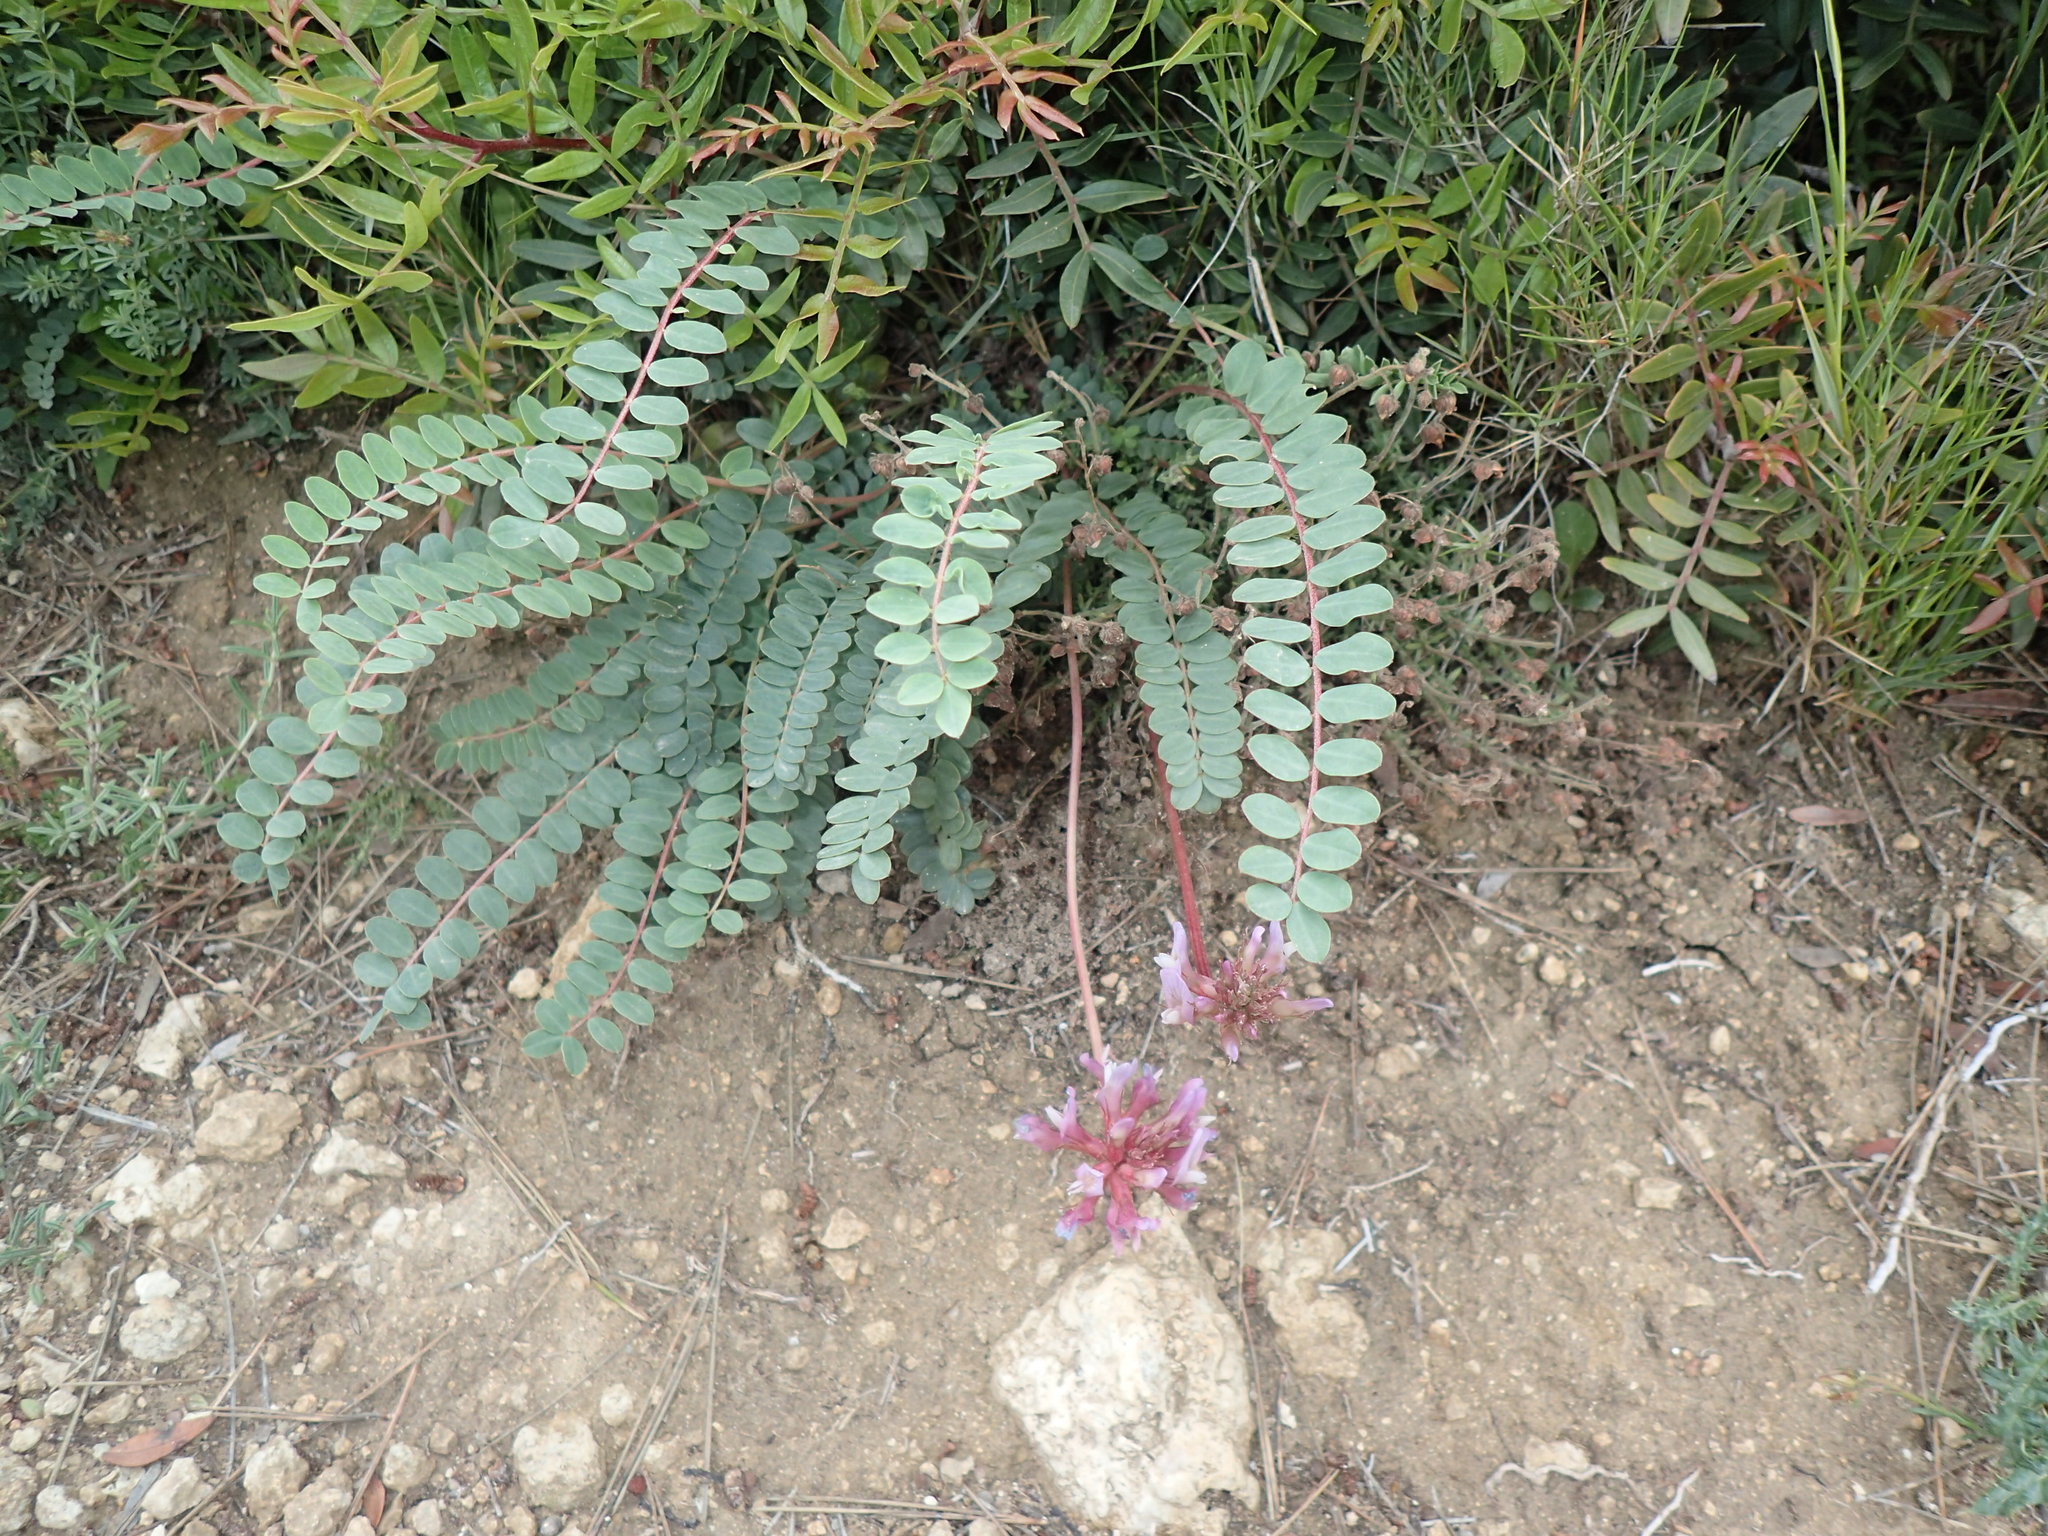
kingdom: Plantae
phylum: Tracheophyta
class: Magnoliopsida
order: Fabales
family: Fabaceae
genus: Astragalus
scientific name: Astragalus monspessulanus
